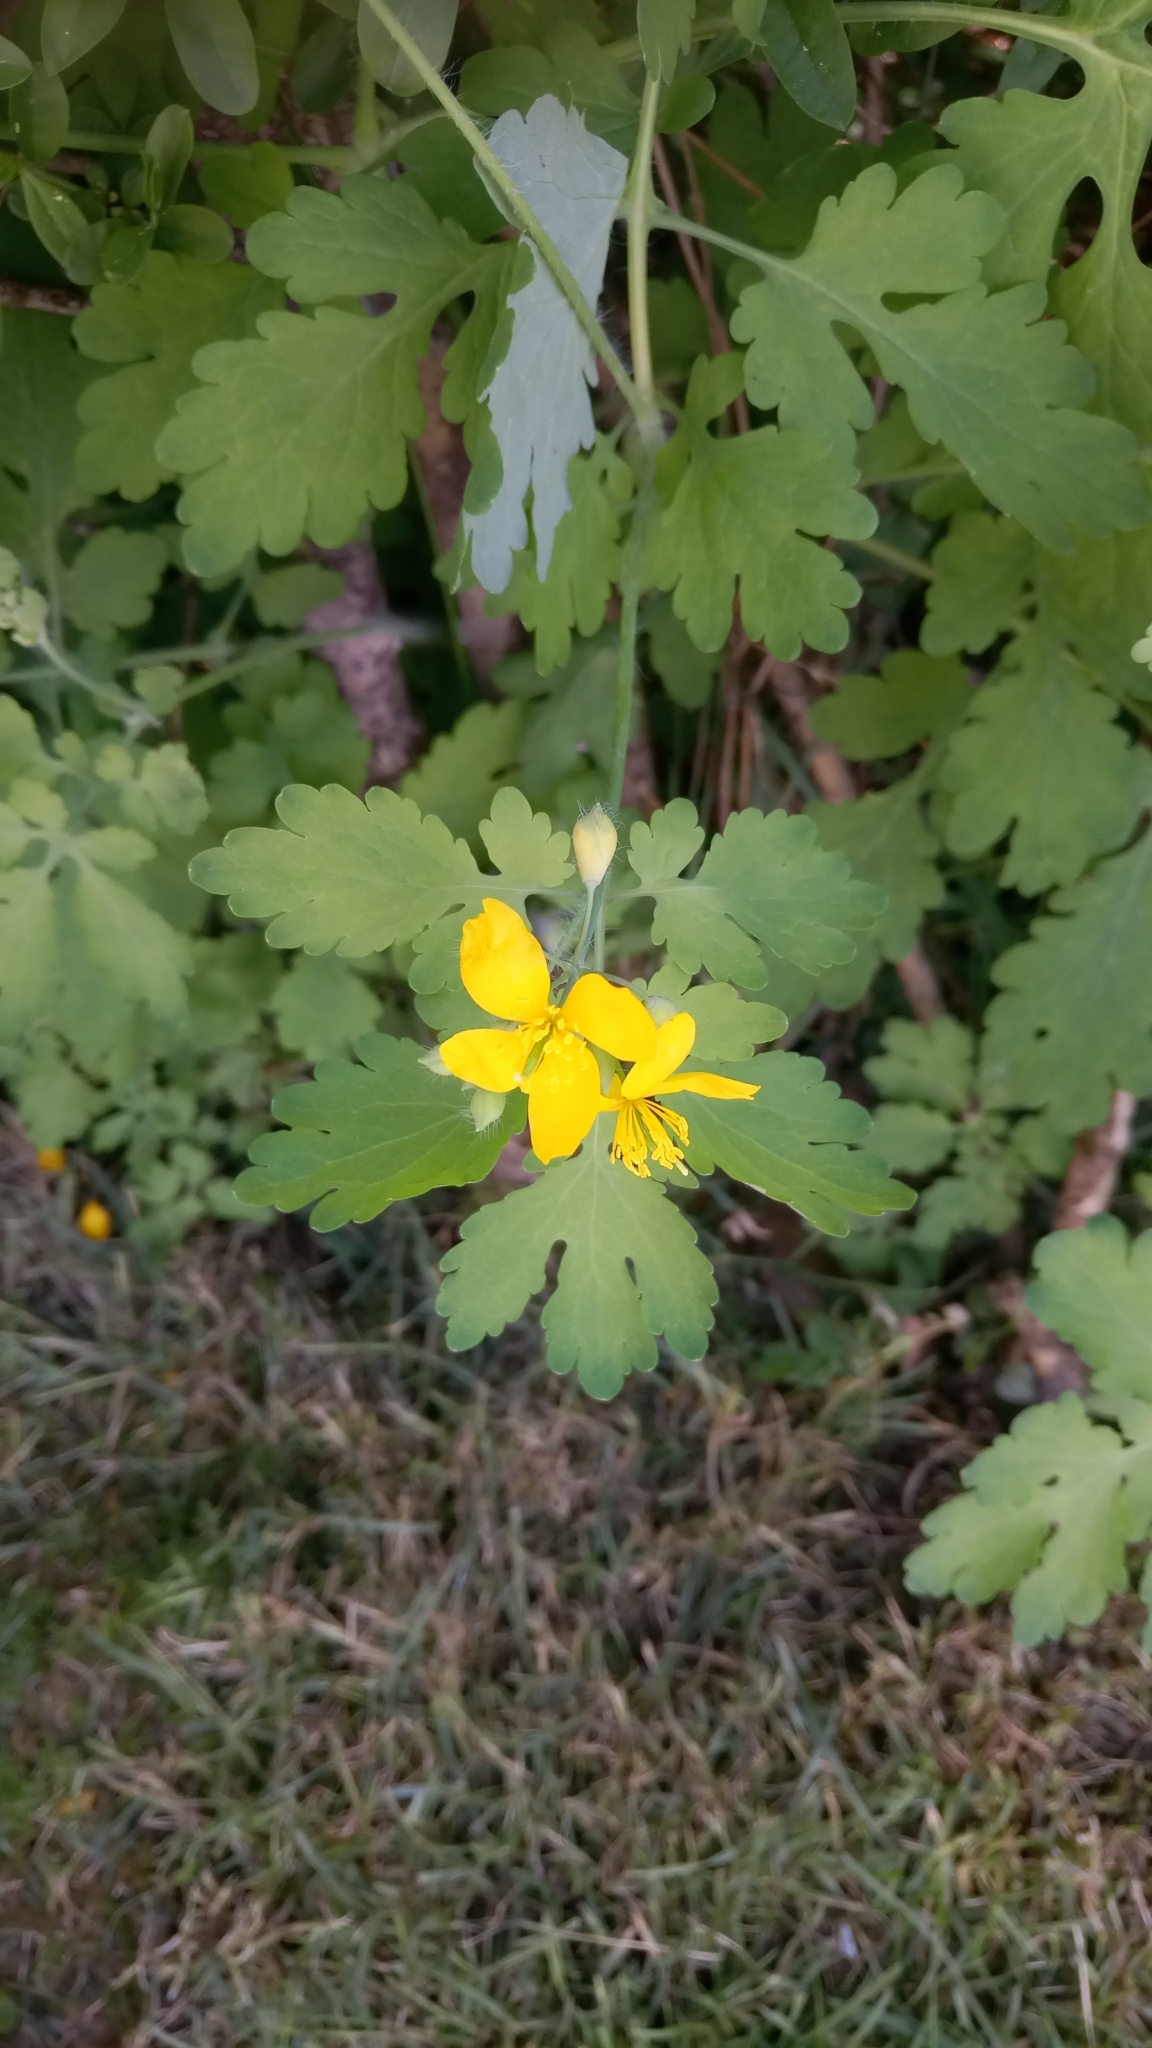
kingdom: Plantae
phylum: Tracheophyta
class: Magnoliopsida
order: Ranunculales
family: Papaveraceae
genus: Chelidonium
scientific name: Chelidonium majus
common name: Greater celandine
